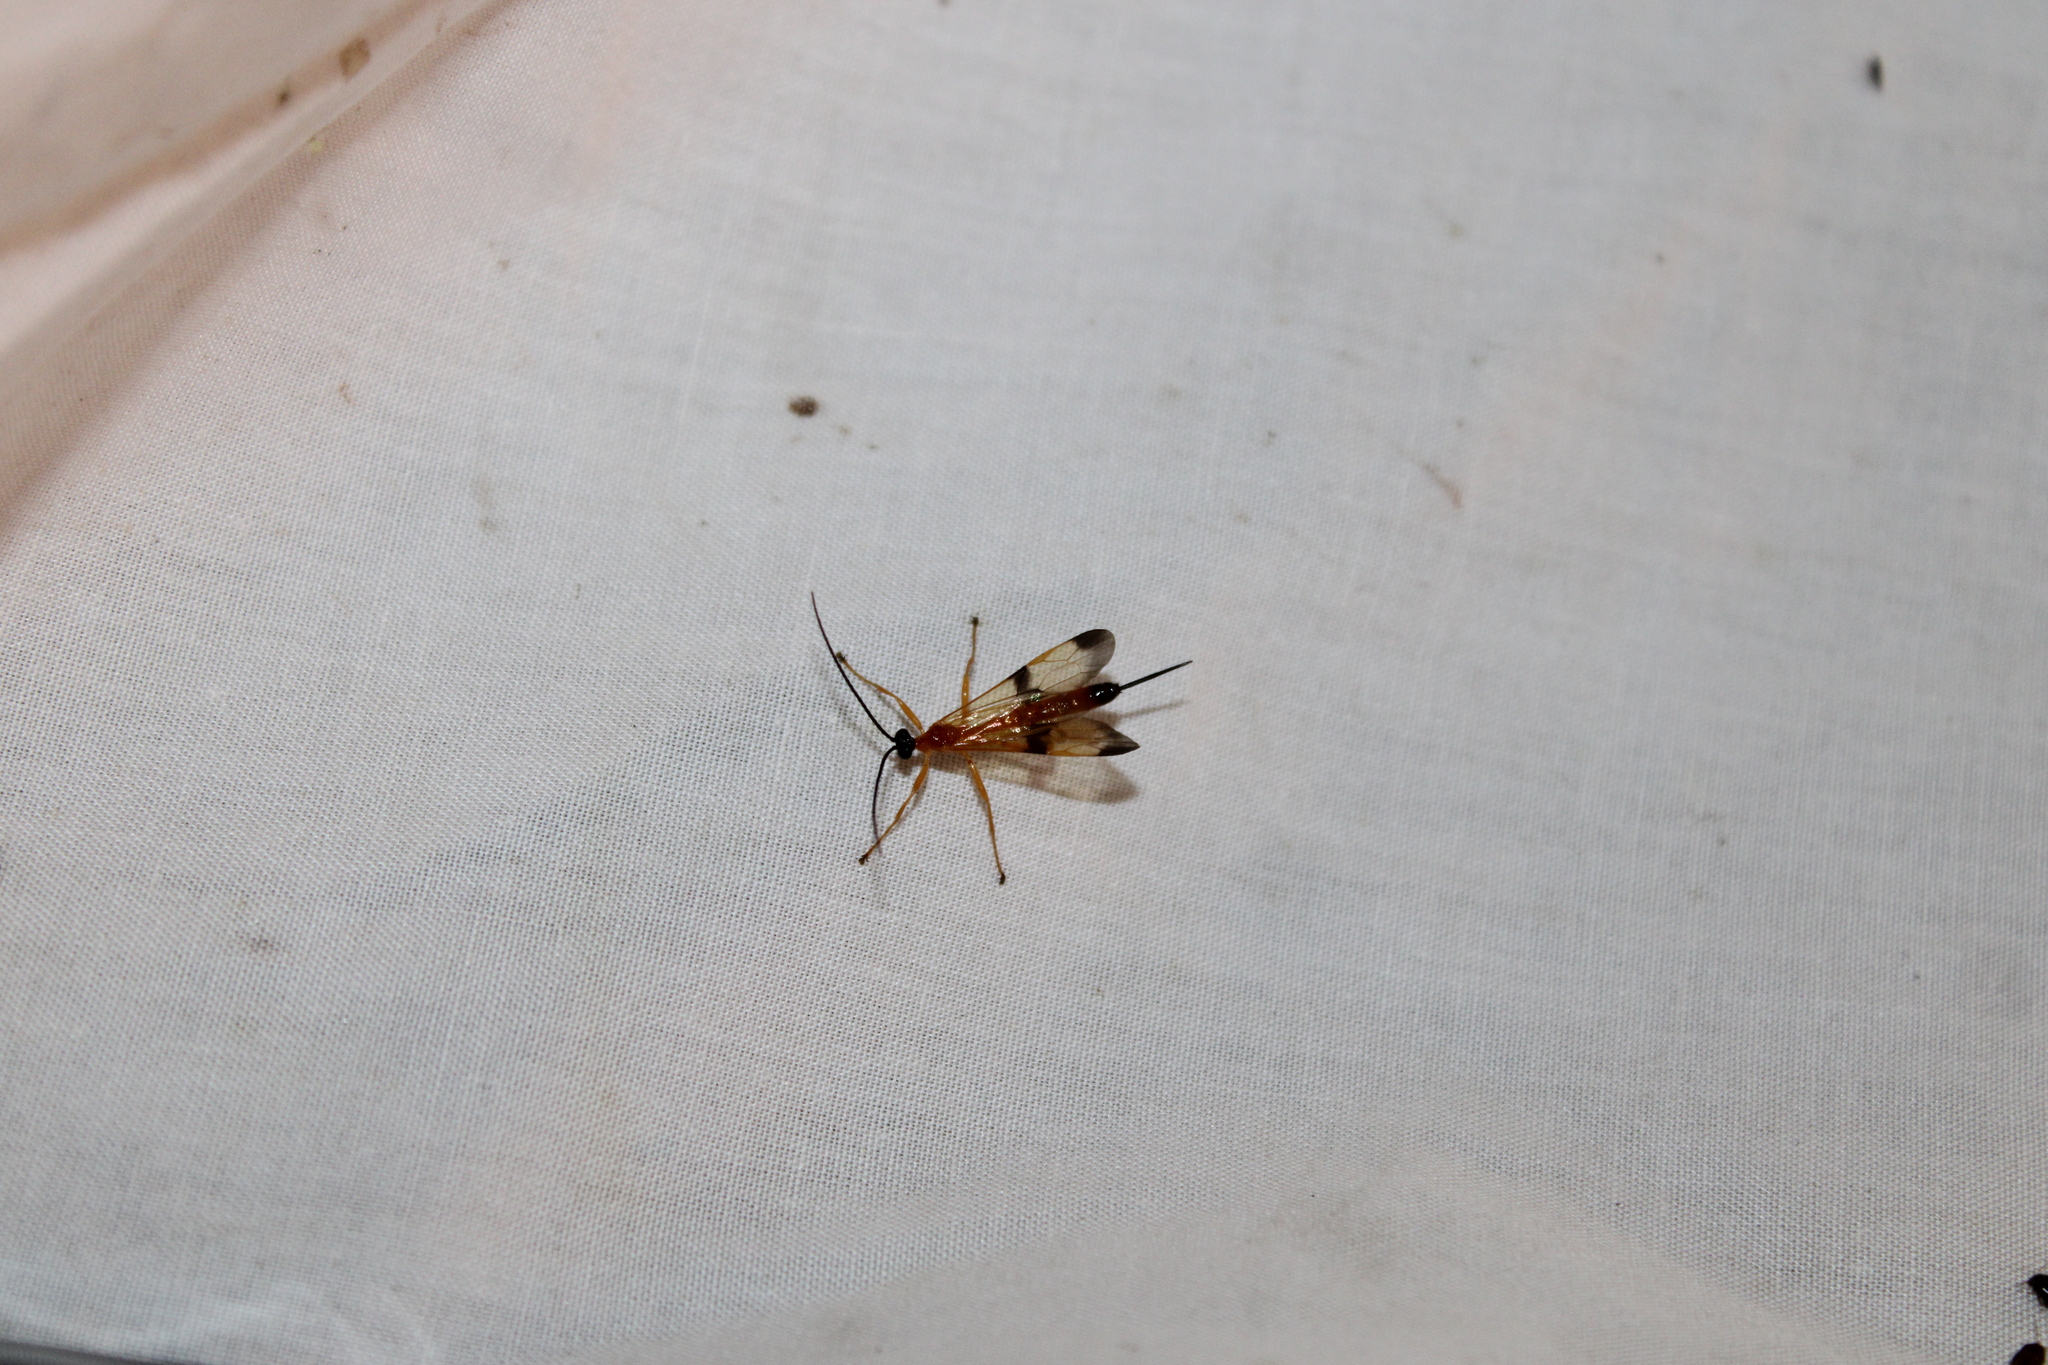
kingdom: Animalia
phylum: Arthropoda
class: Insecta
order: Hymenoptera
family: Ichneumonidae
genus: Acrotaphus
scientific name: Acrotaphus wiltii
